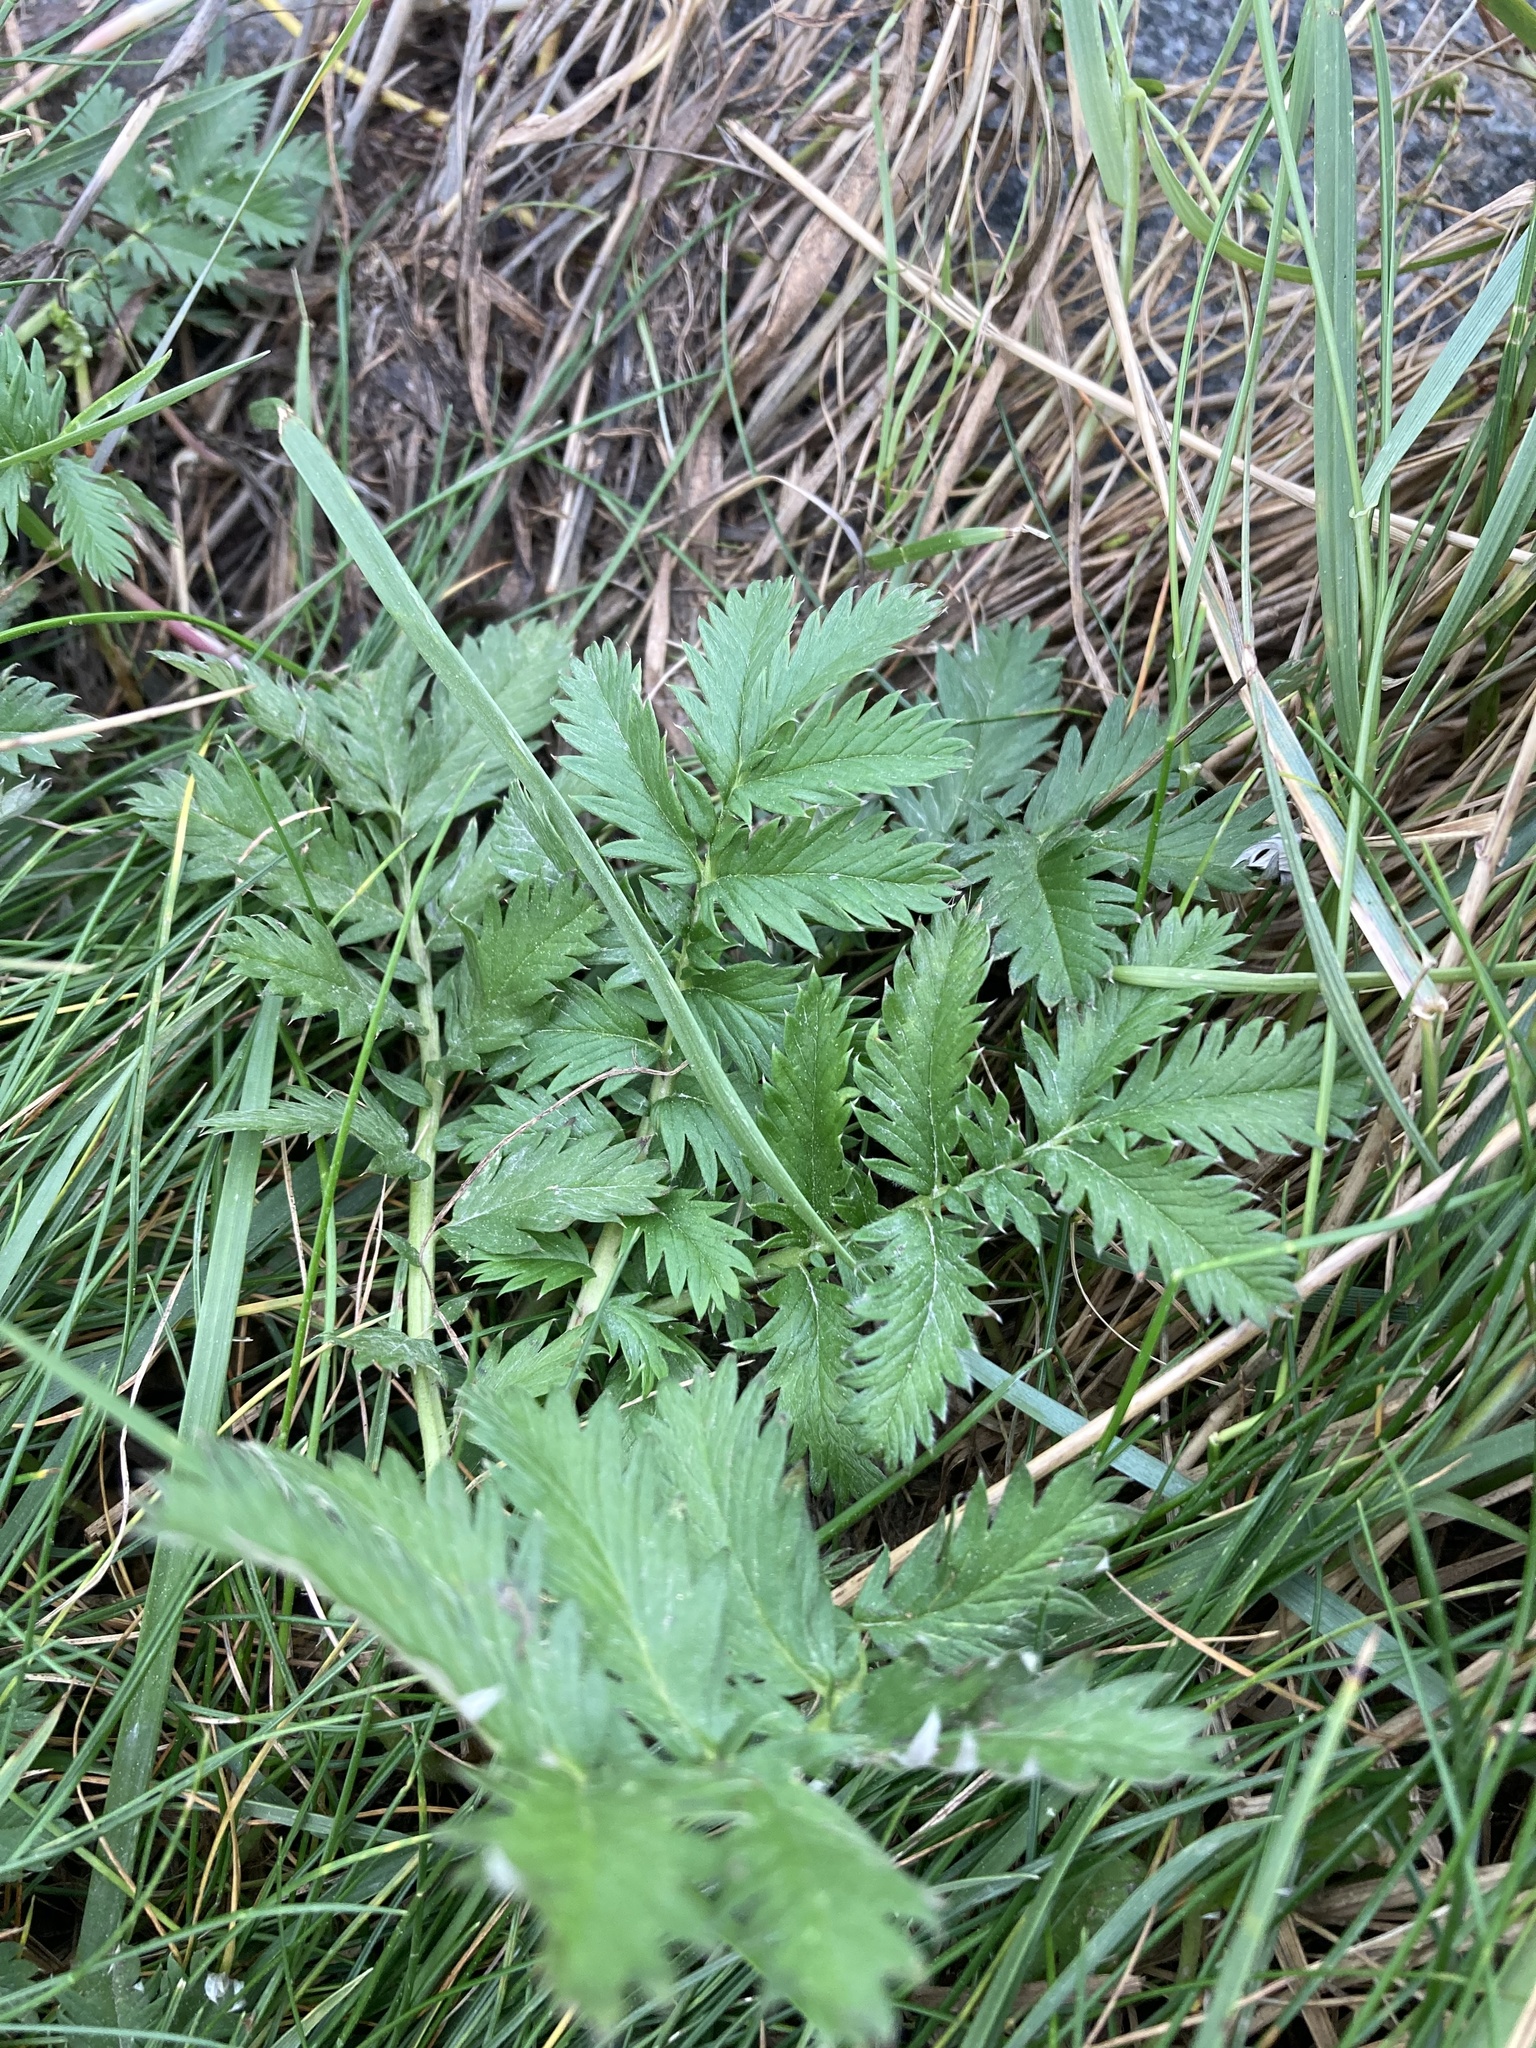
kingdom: Plantae
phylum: Tracheophyta
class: Magnoliopsida
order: Rosales
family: Rosaceae
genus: Argentina
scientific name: Argentina anserina
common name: Common silverweed
